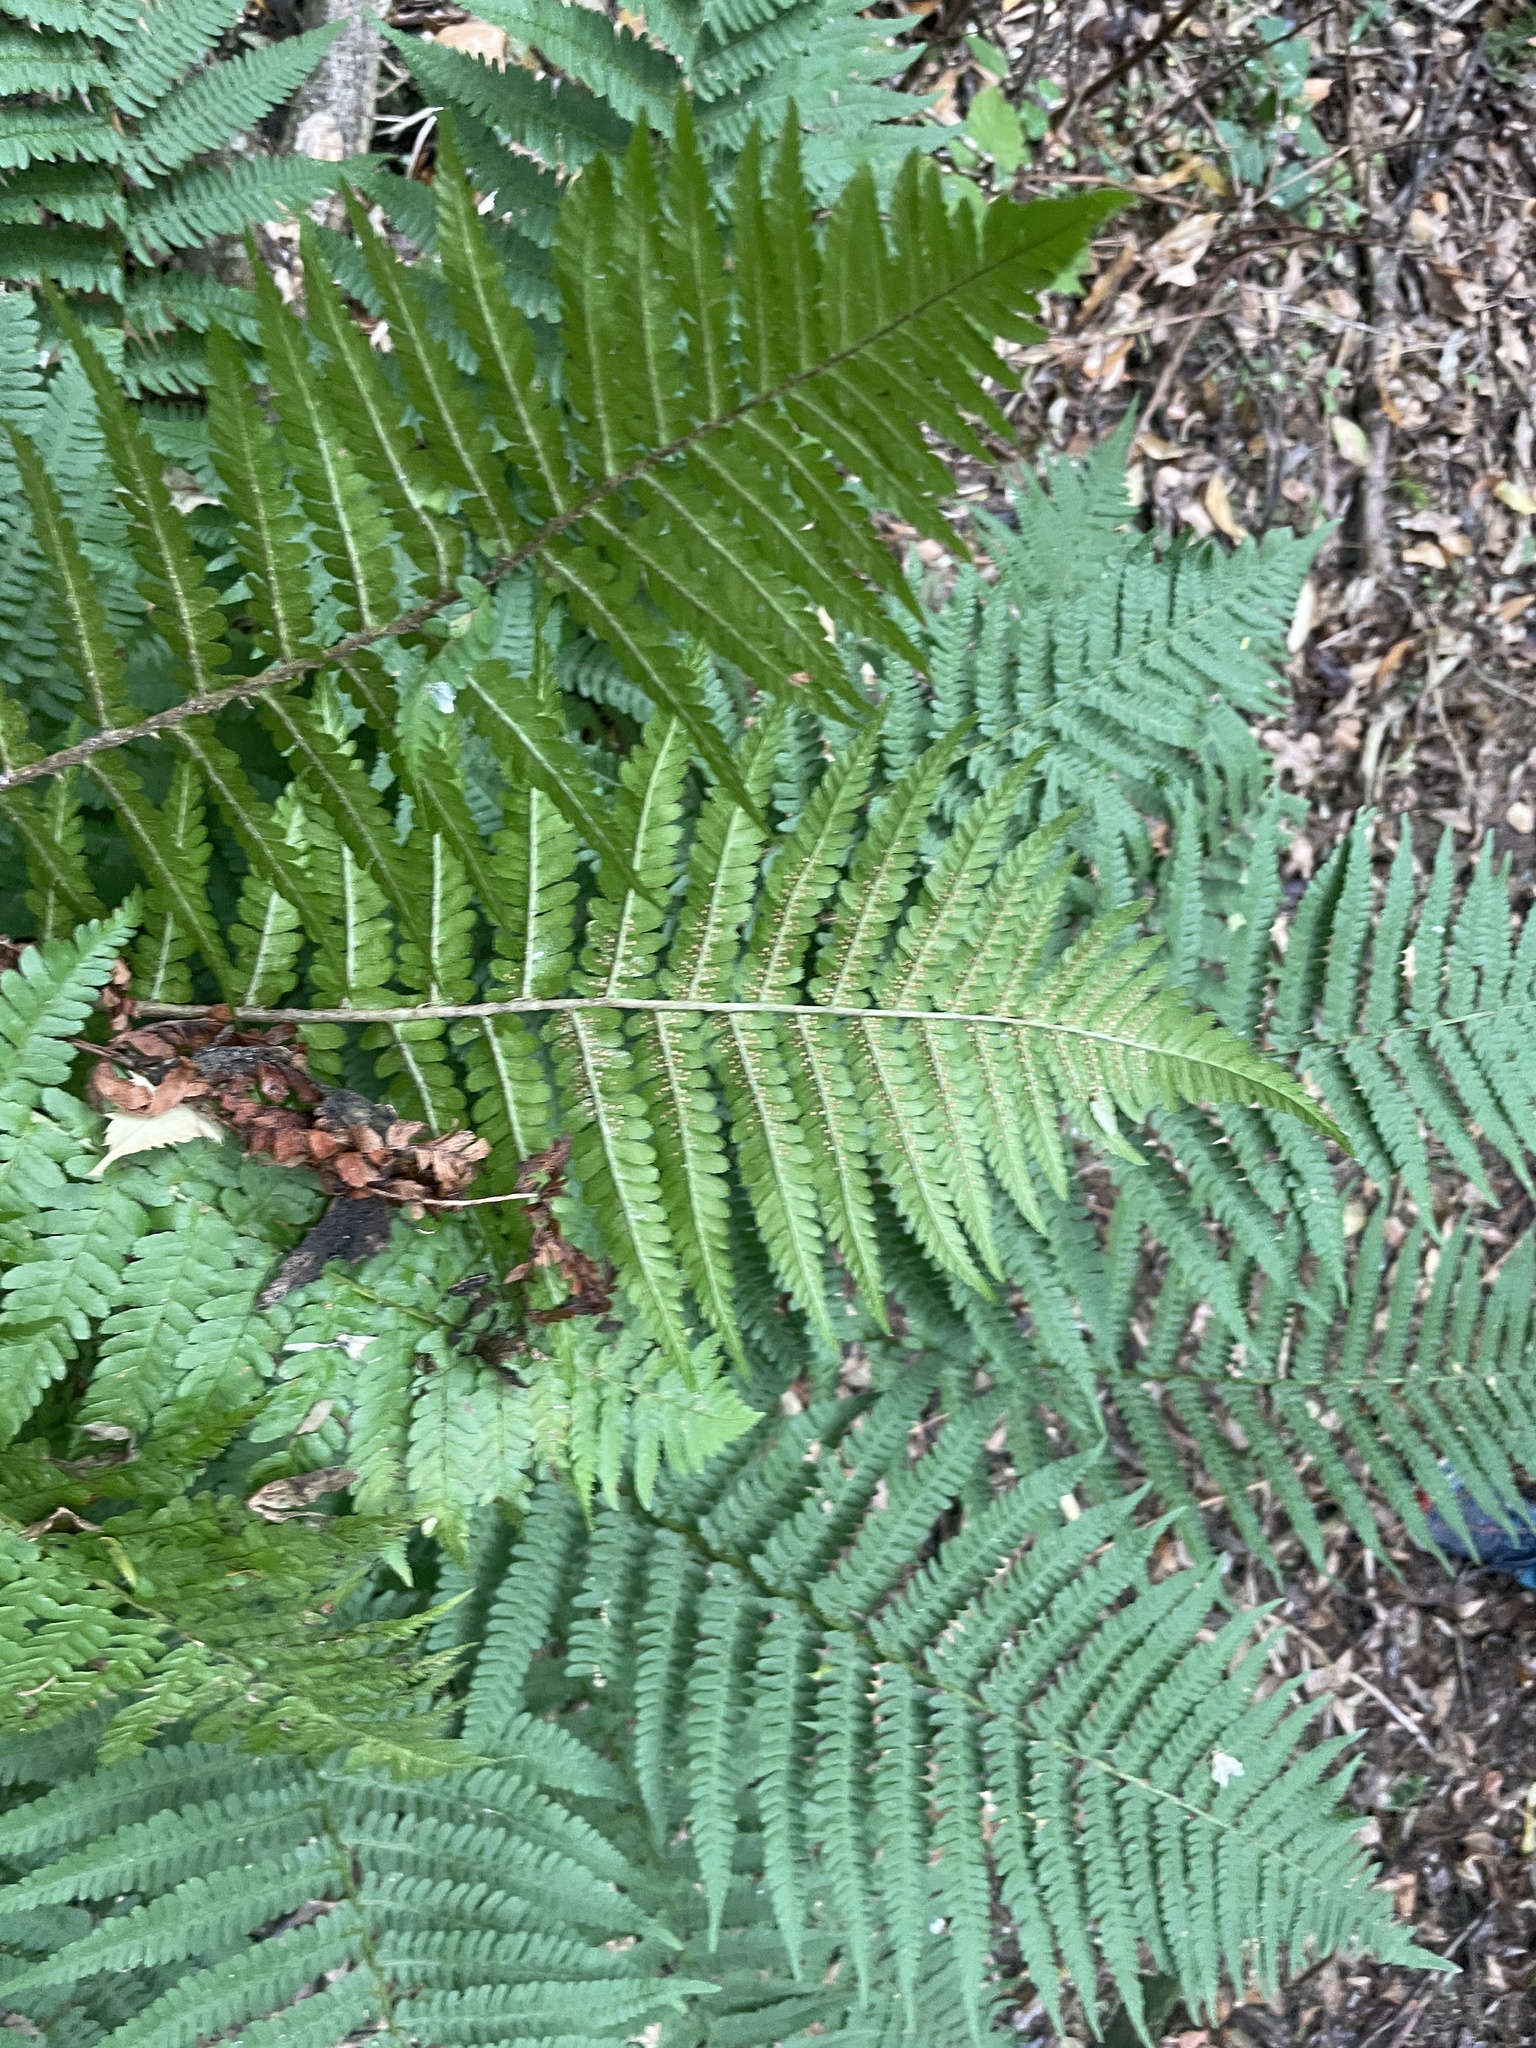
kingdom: Plantae
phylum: Tracheophyta
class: Polypodiopsida
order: Polypodiales
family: Dryopteridaceae
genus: Dryopteris
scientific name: Dryopteris filix-mas
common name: Male fern
